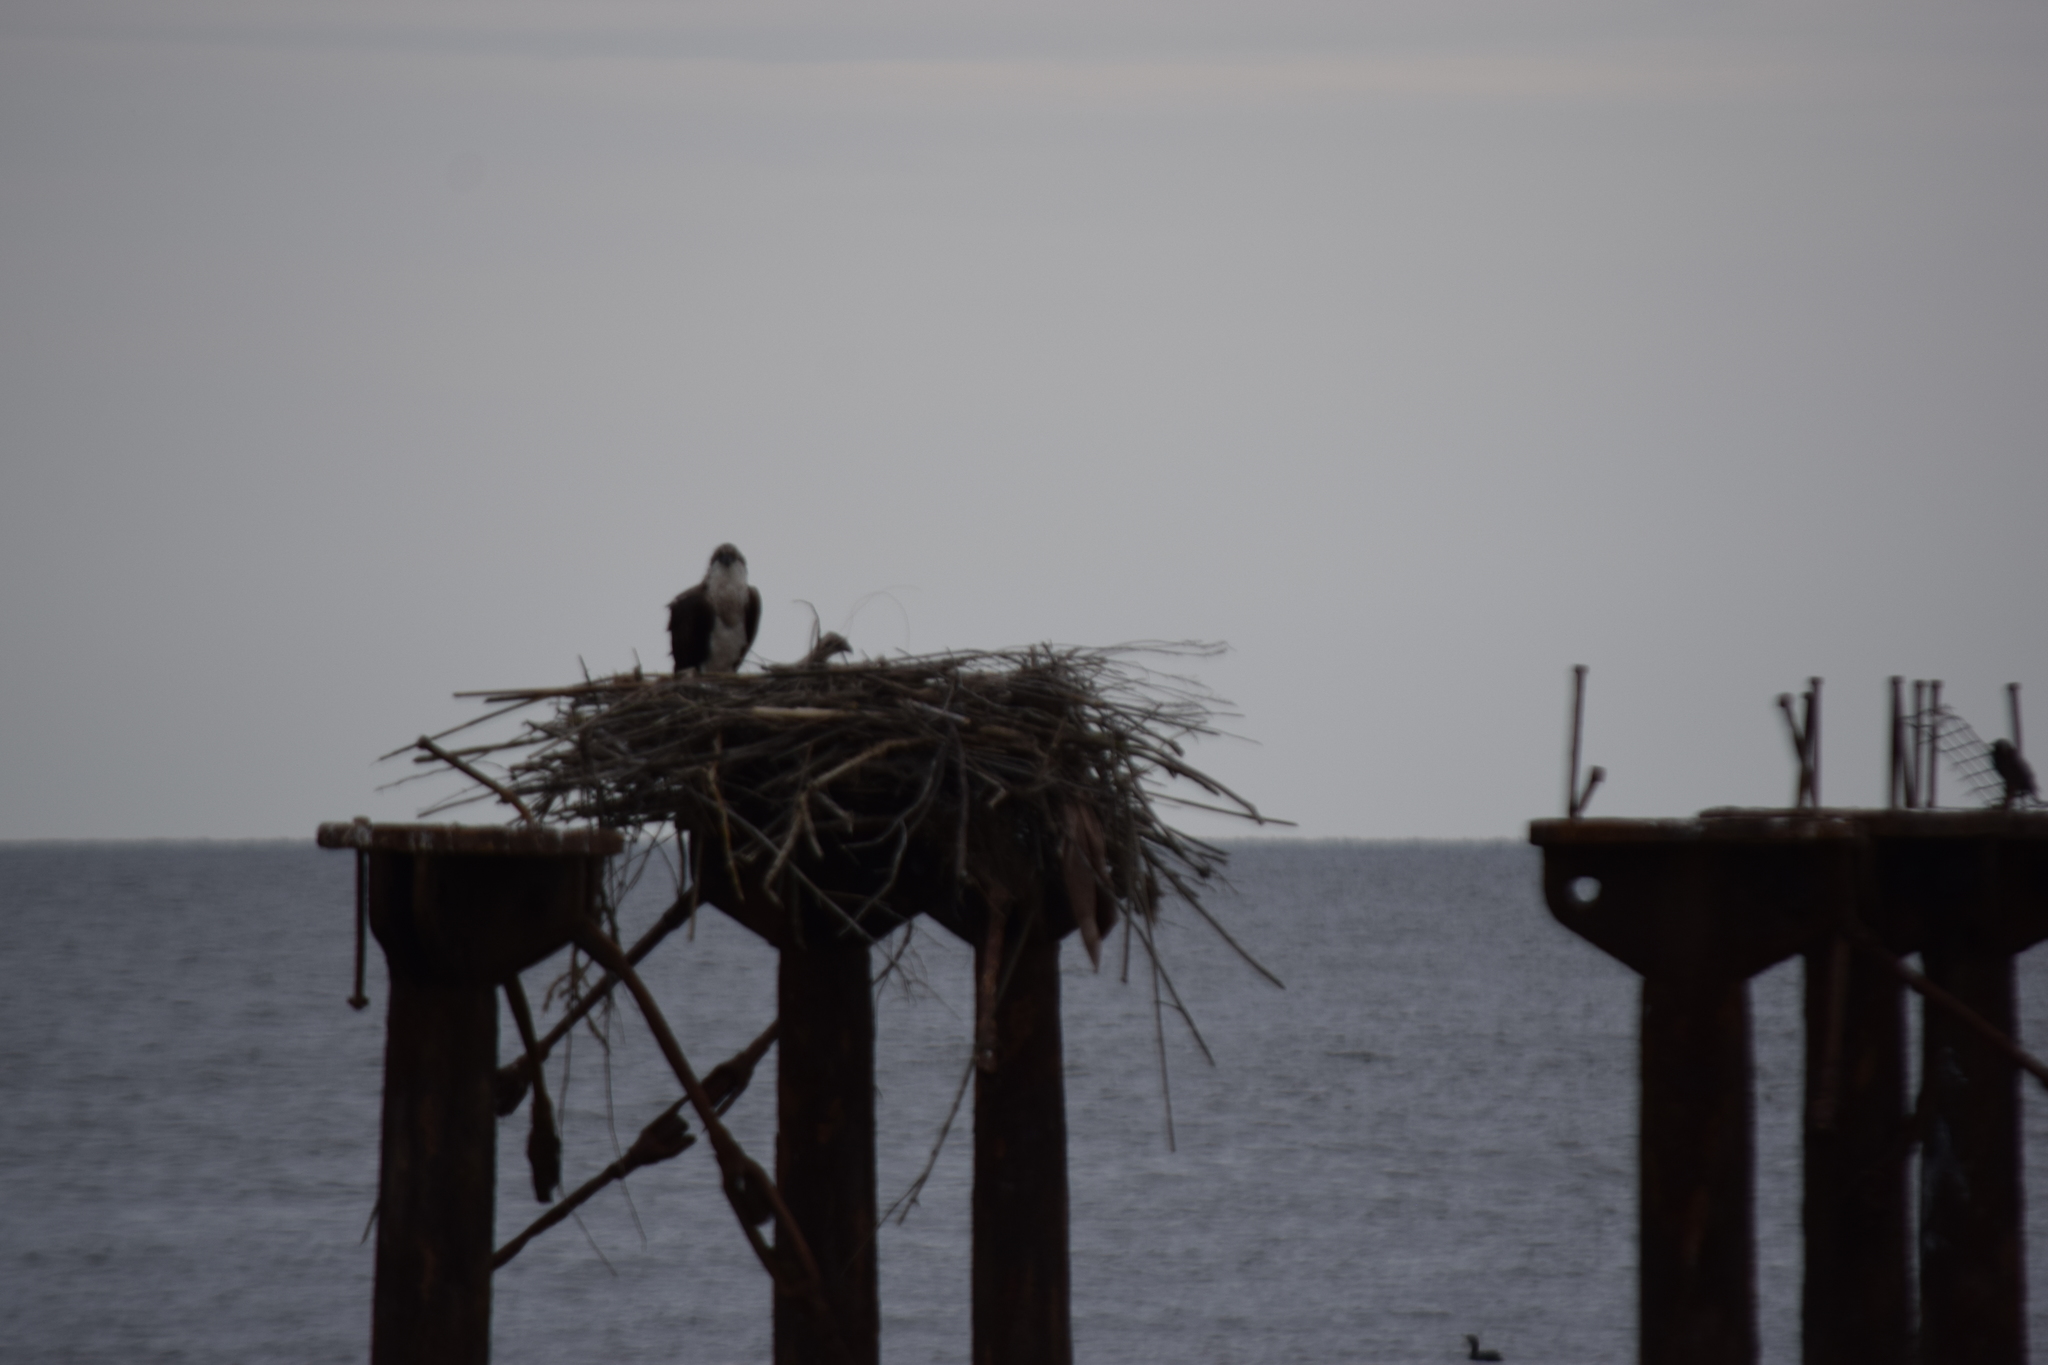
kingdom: Animalia
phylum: Chordata
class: Aves
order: Accipitriformes
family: Pandionidae
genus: Pandion
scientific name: Pandion haliaetus
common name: Osprey
